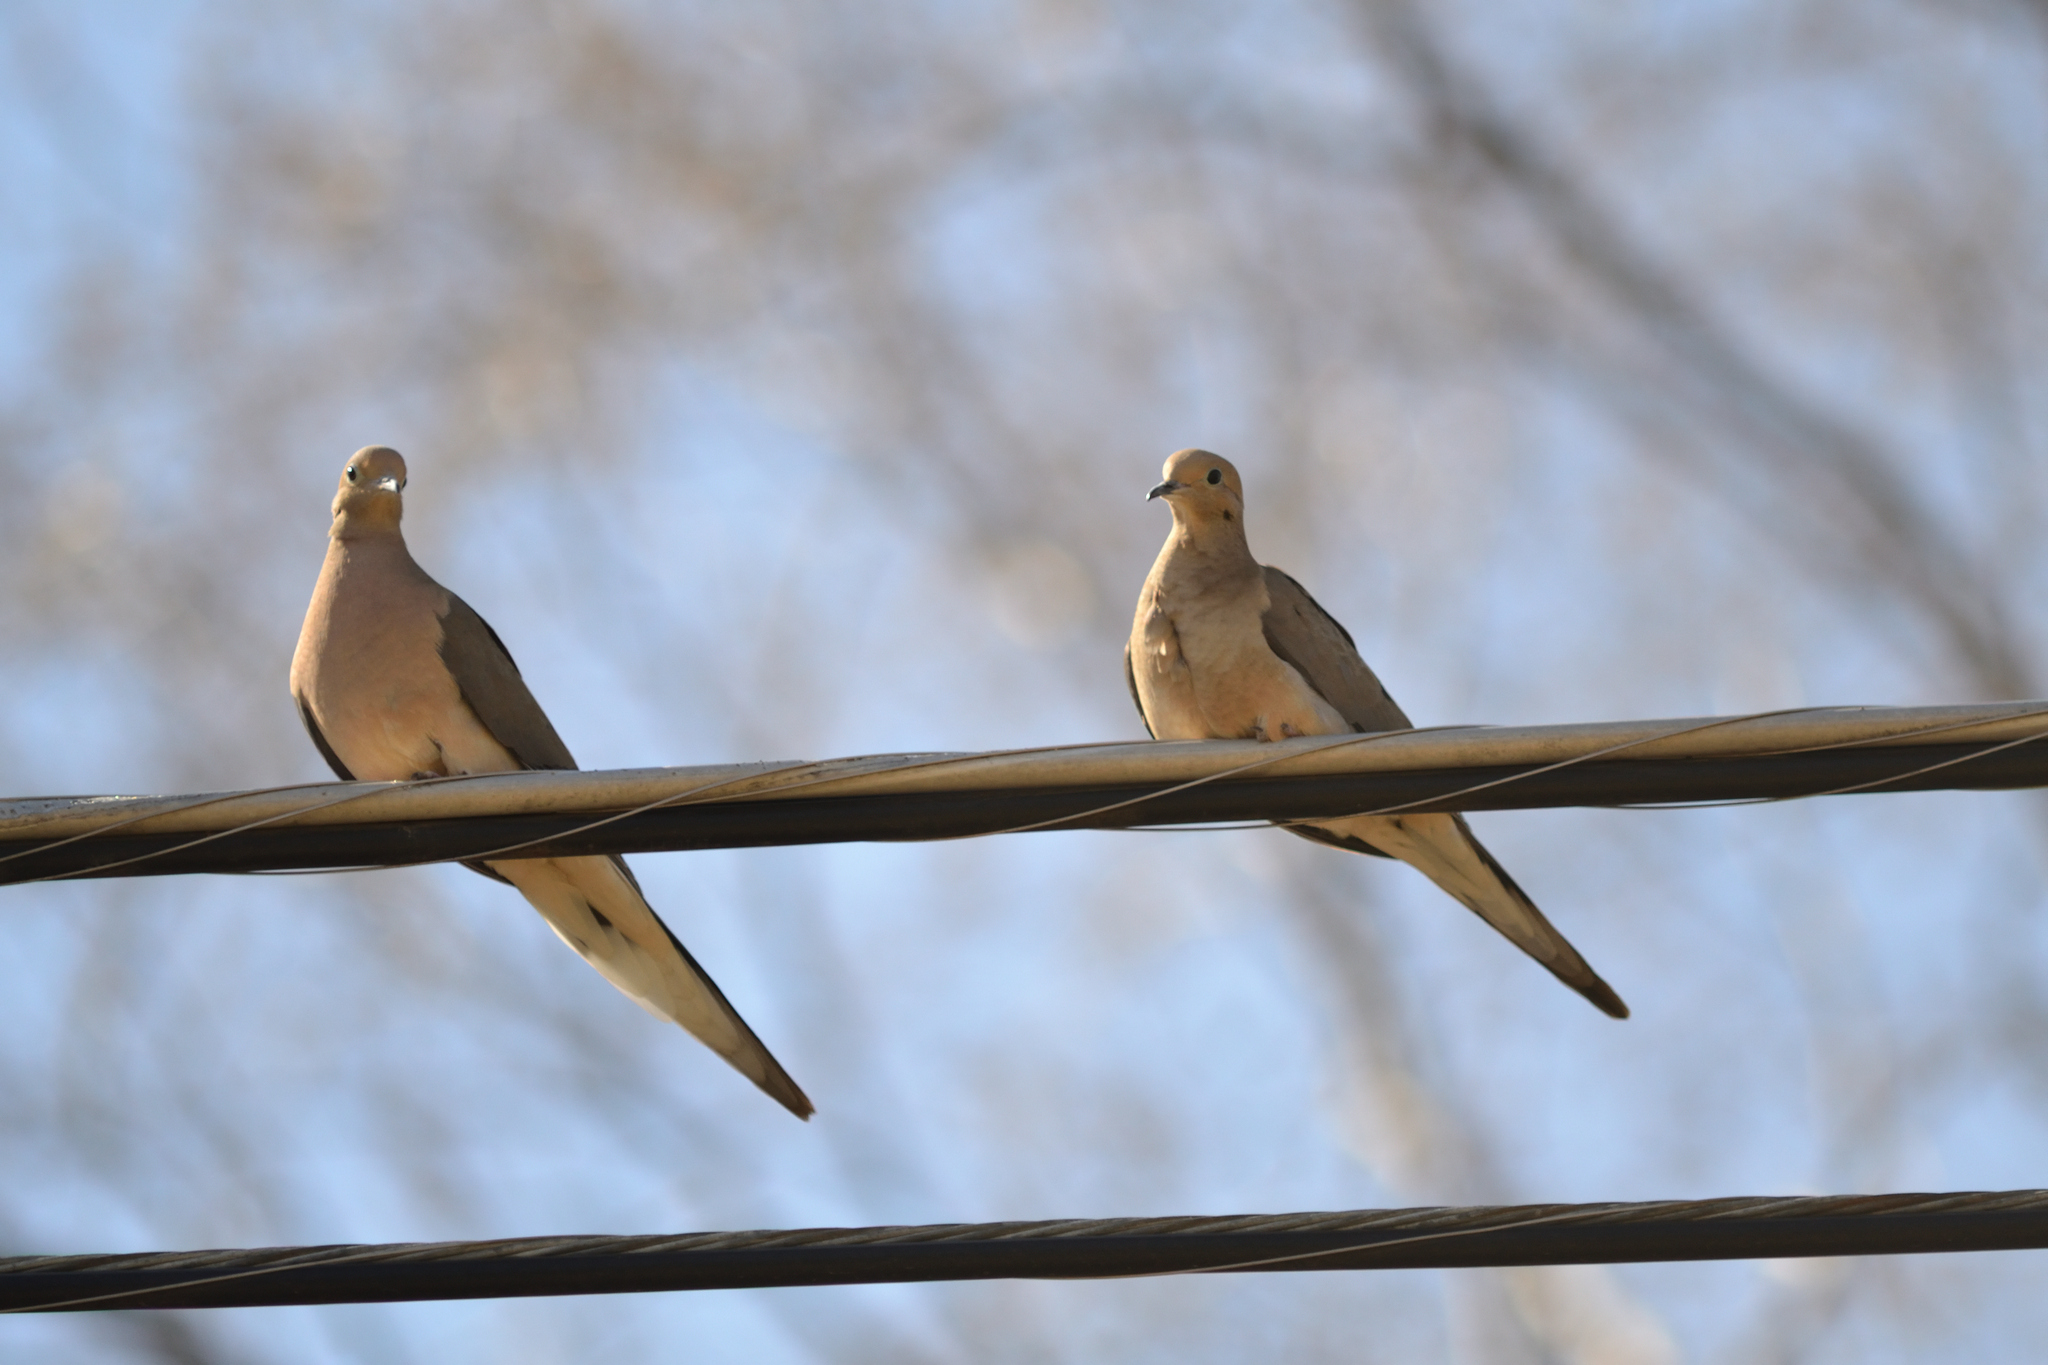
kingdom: Animalia
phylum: Chordata
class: Aves
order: Columbiformes
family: Columbidae
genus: Zenaida
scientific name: Zenaida macroura
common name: Mourning dove
